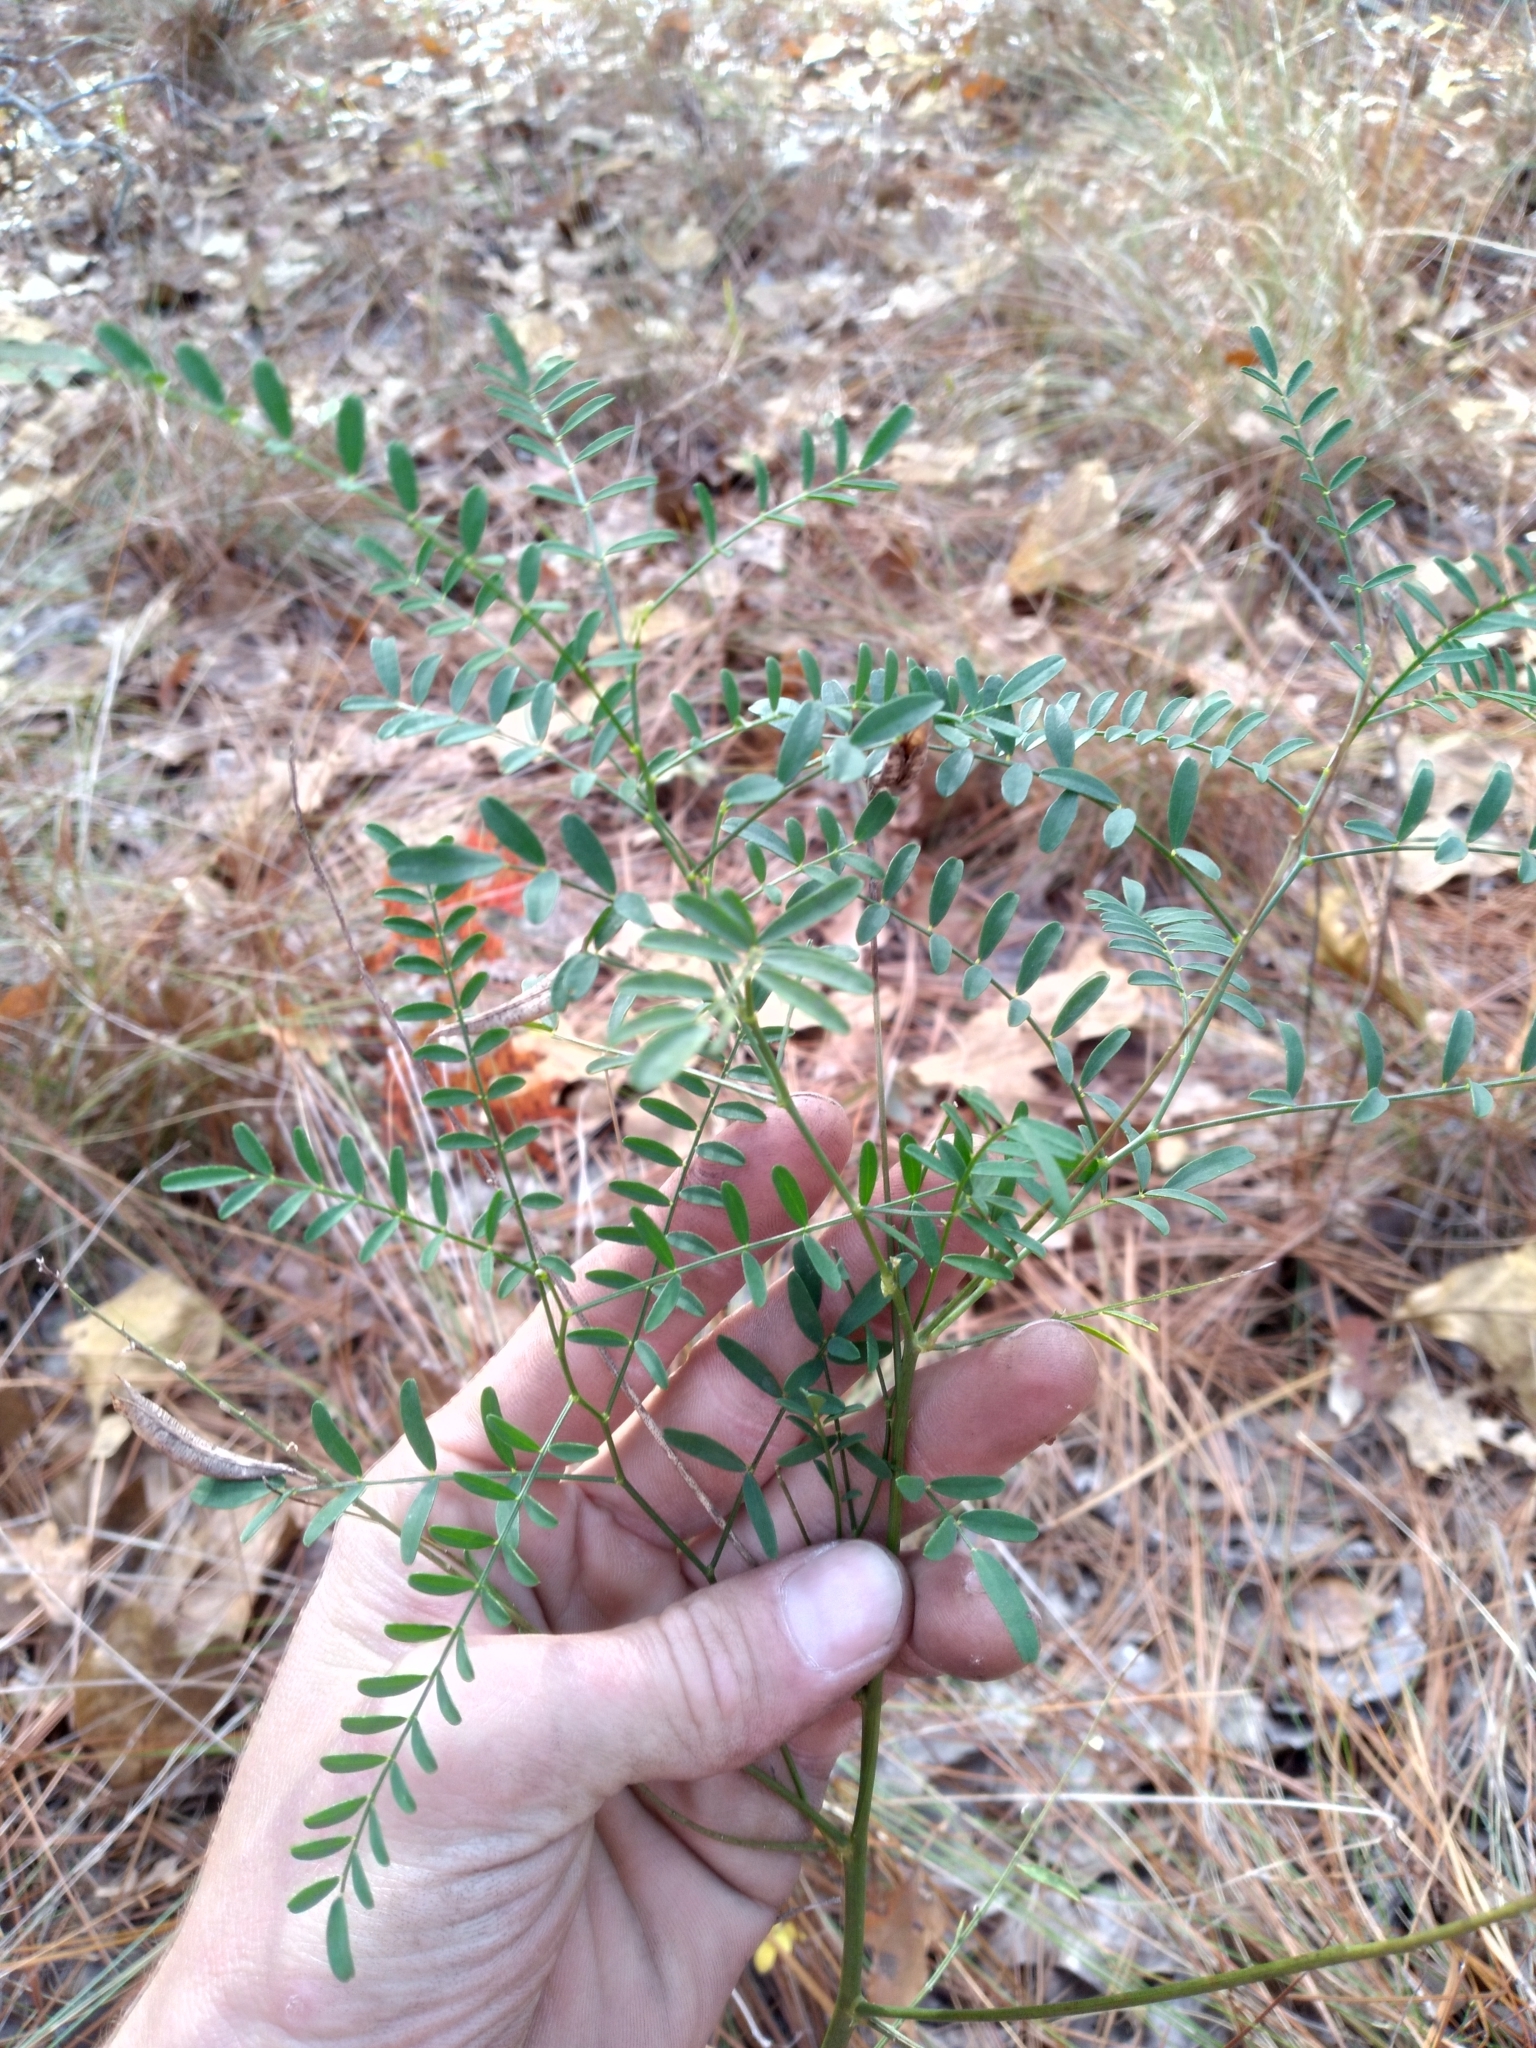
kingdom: Plantae
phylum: Tracheophyta
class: Magnoliopsida
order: Fabales
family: Fabaceae
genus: Astragalus
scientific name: Astragalus michauxii
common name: Michaux milk-vetch
